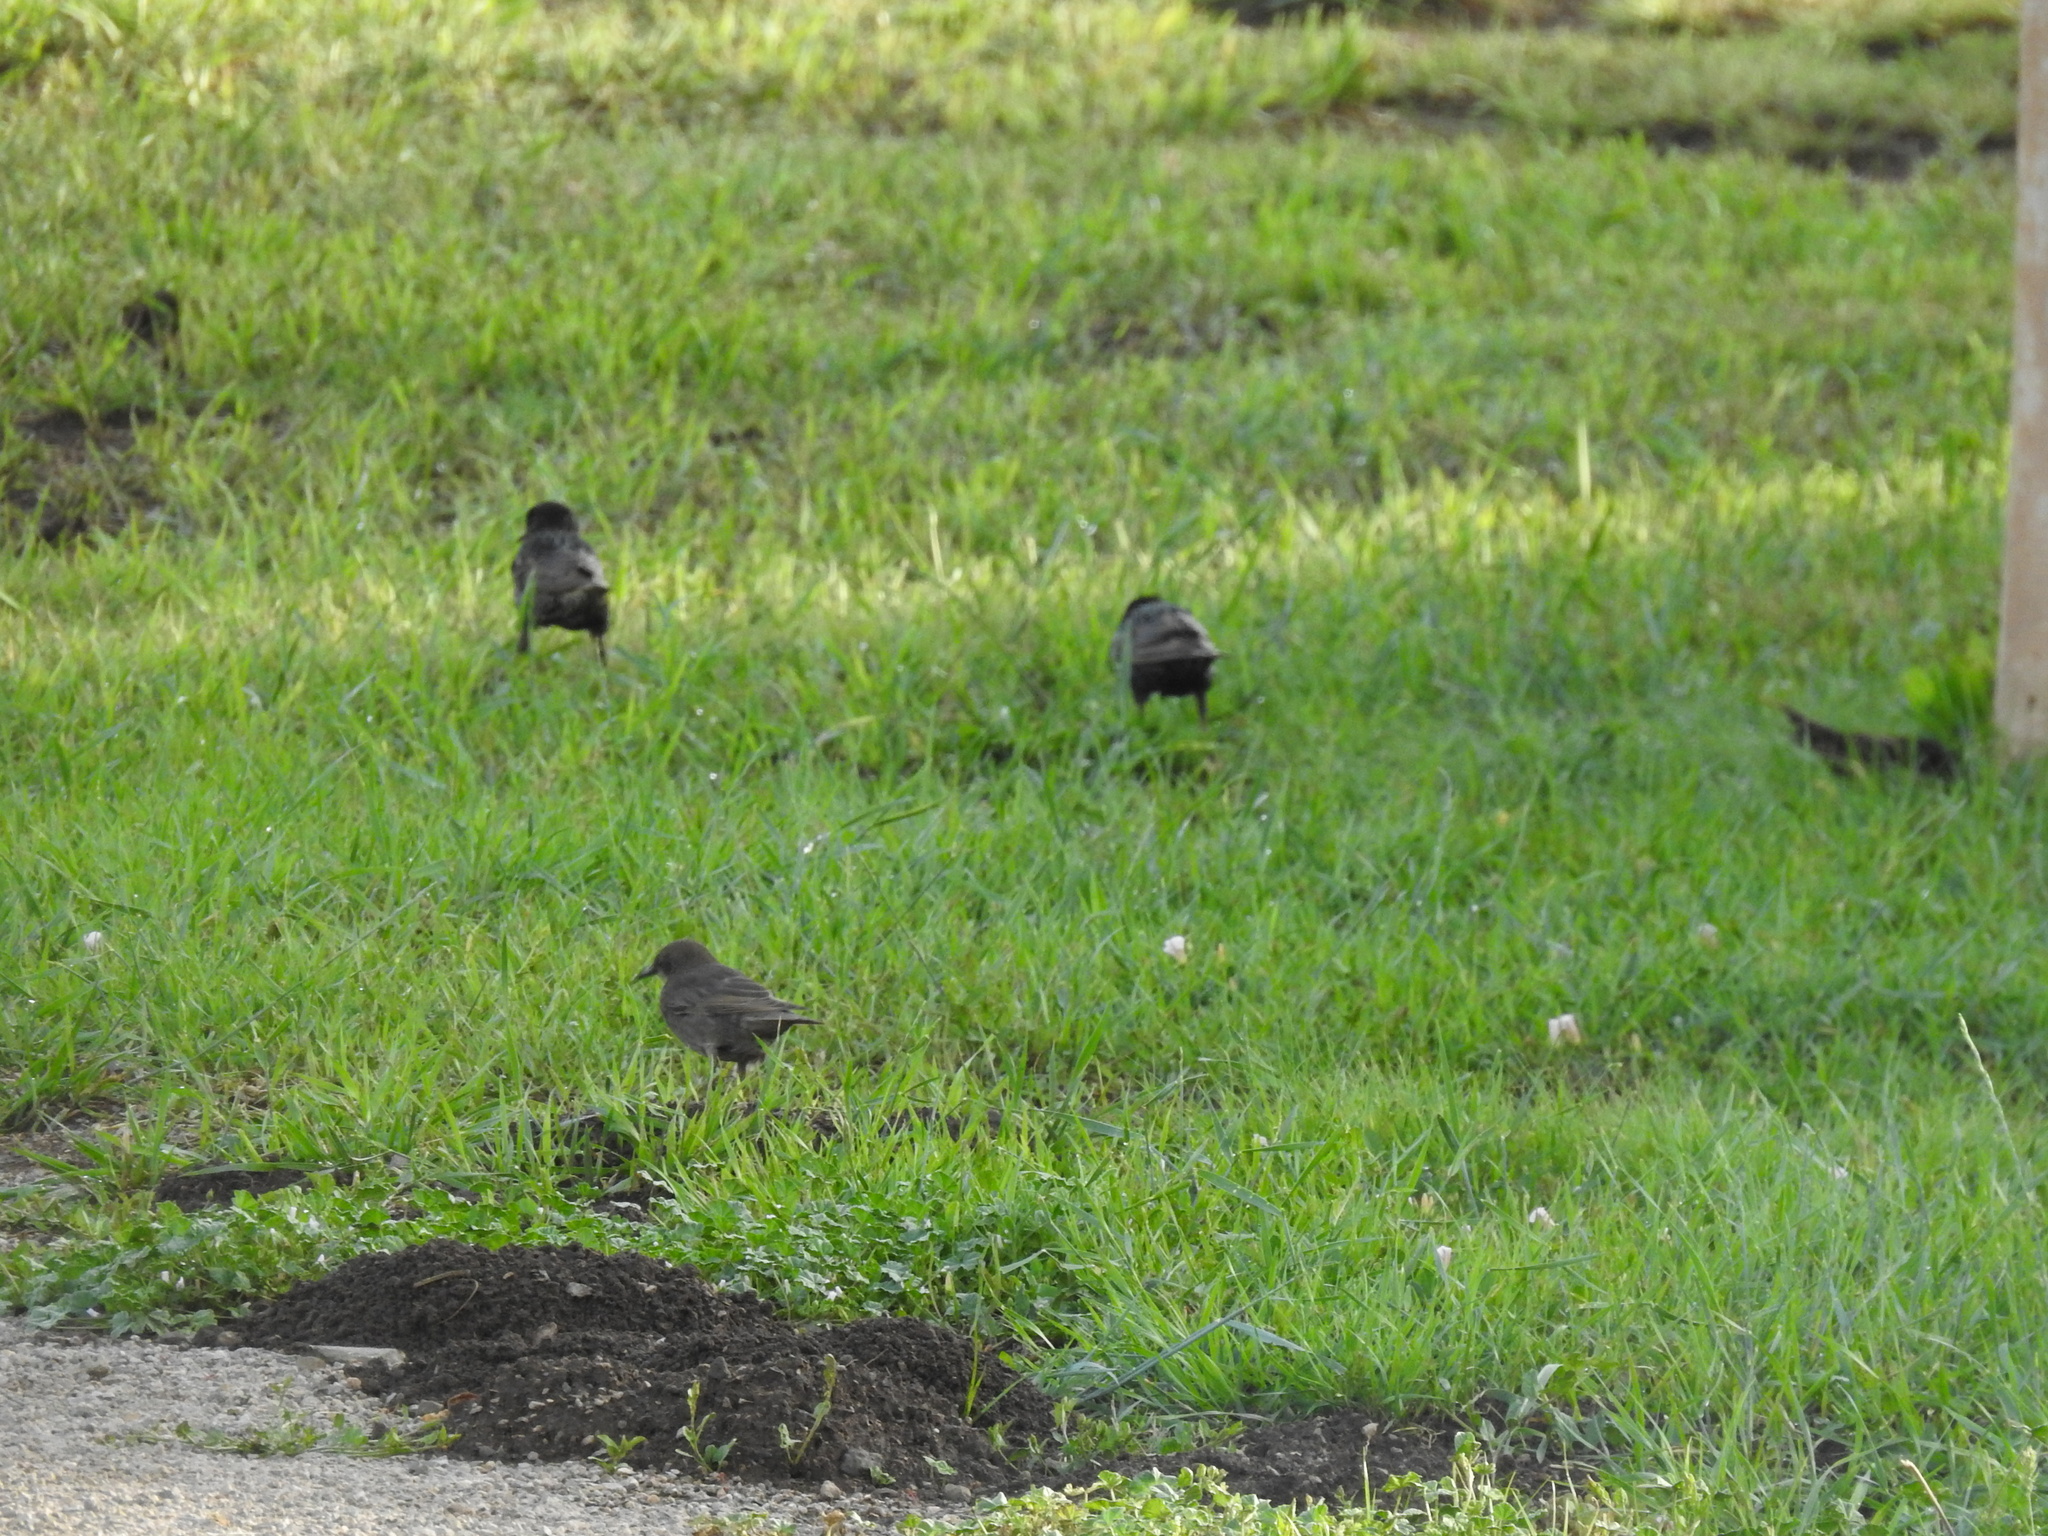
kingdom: Animalia
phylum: Chordata
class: Aves
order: Passeriformes
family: Sturnidae
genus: Sturnus
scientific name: Sturnus vulgaris
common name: Common starling
